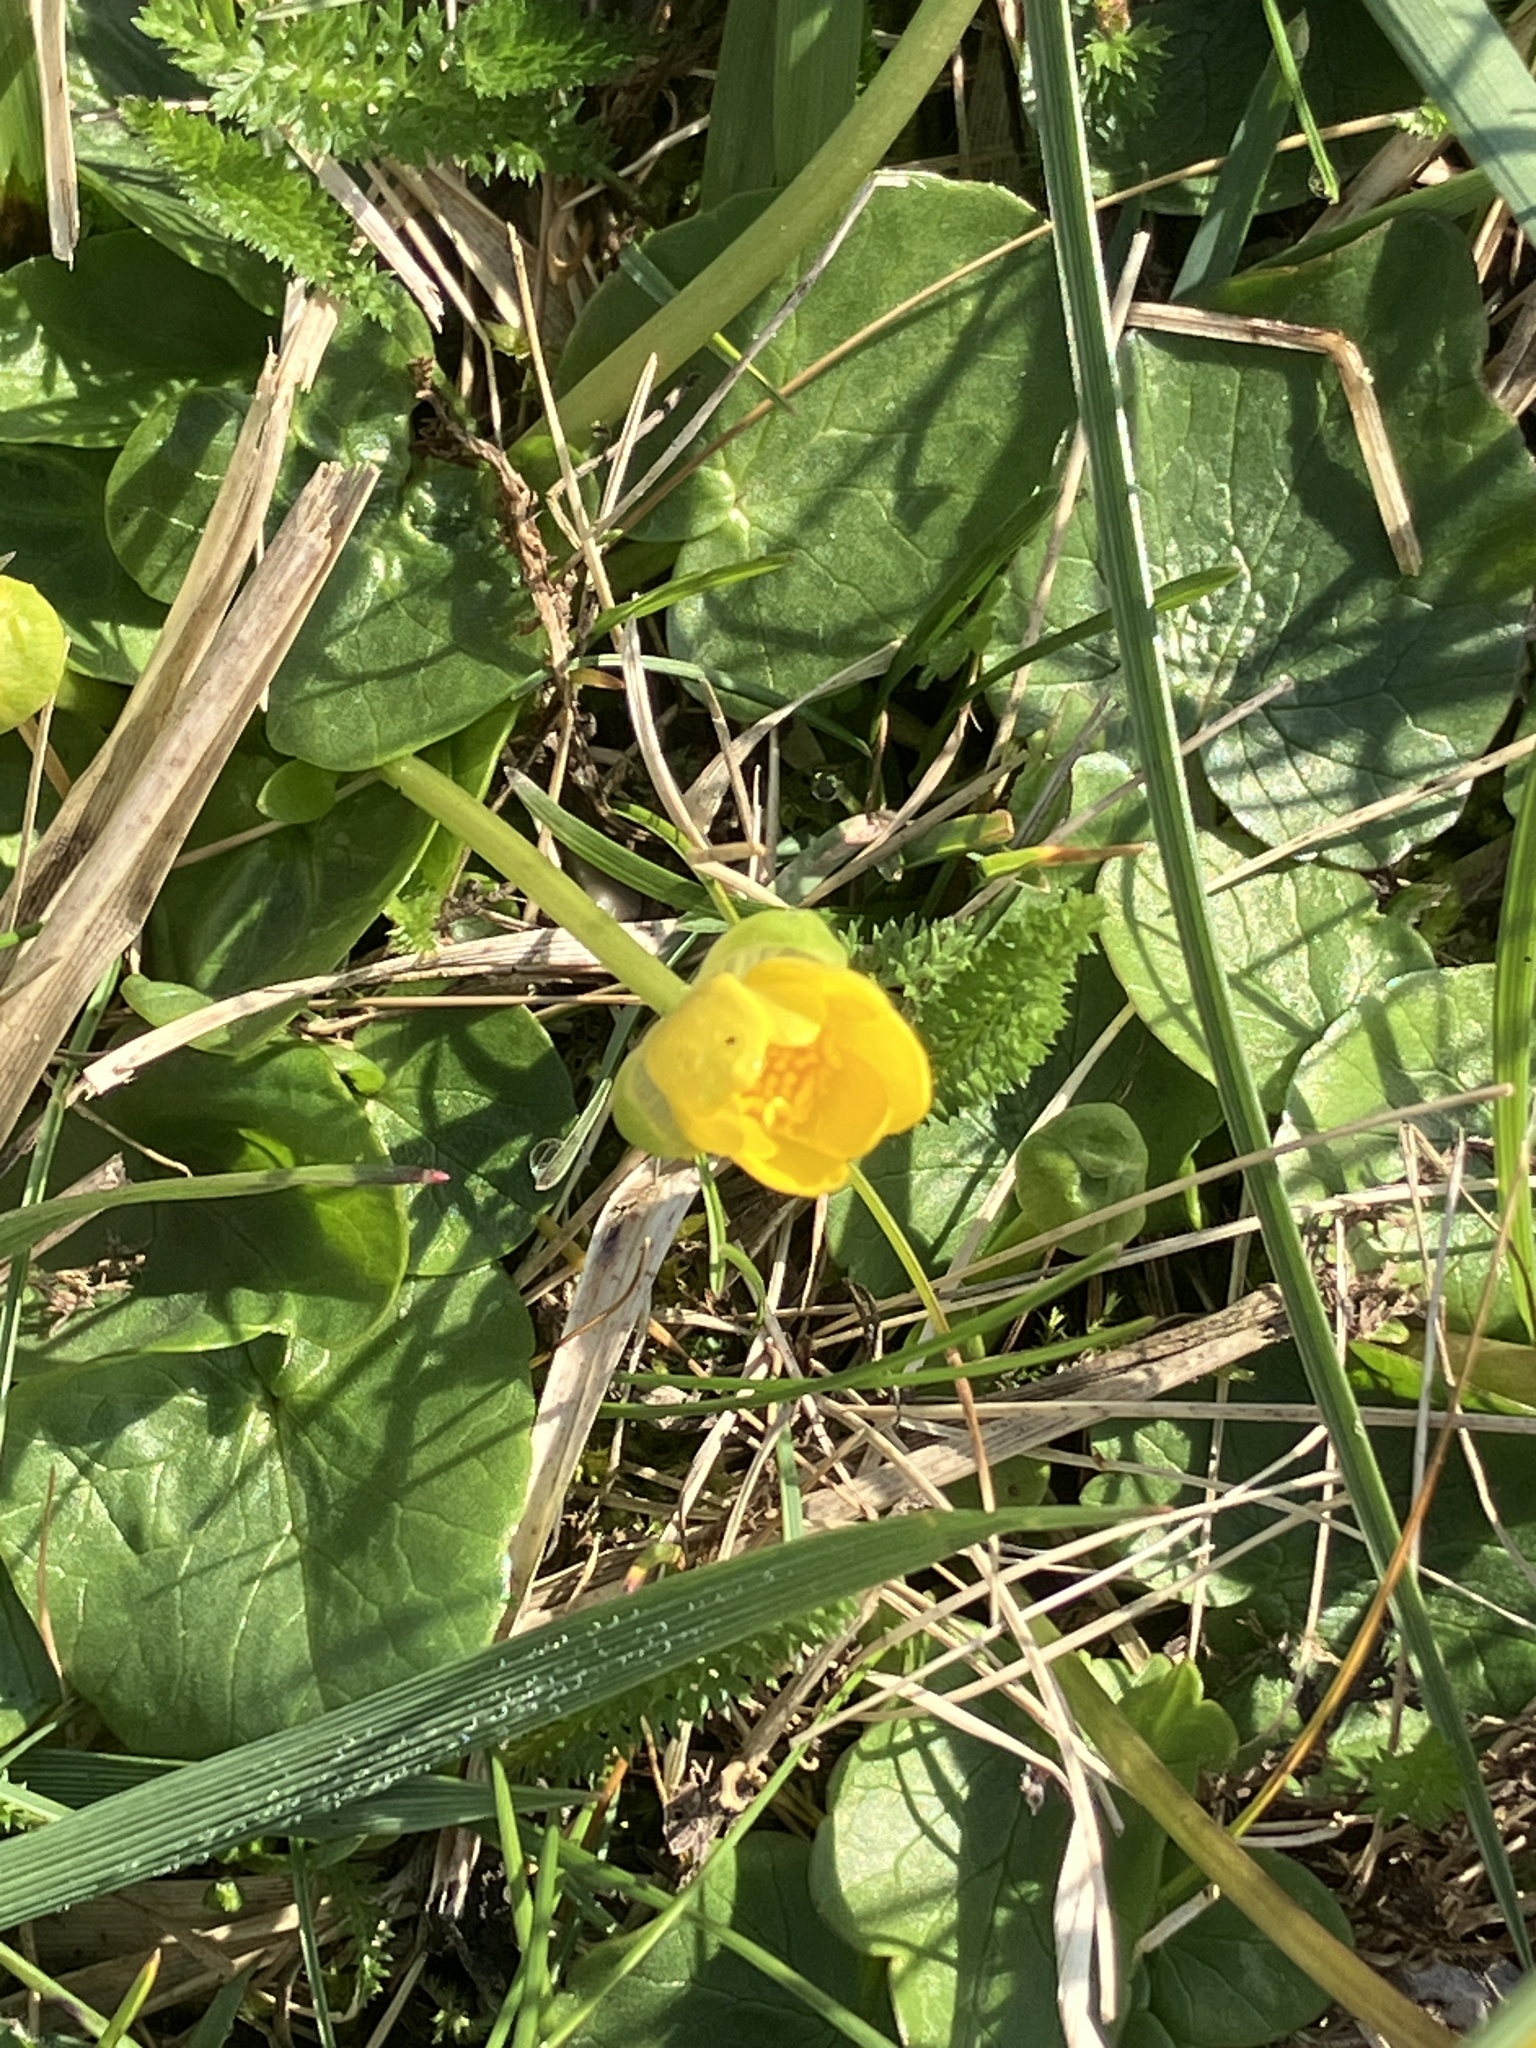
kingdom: Plantae
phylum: Tracheophyta
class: Magnoliopsida
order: Ranunculales
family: Ranunculaceae
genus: Ficaria
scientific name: Ficaria verna
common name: Lesser celandine
